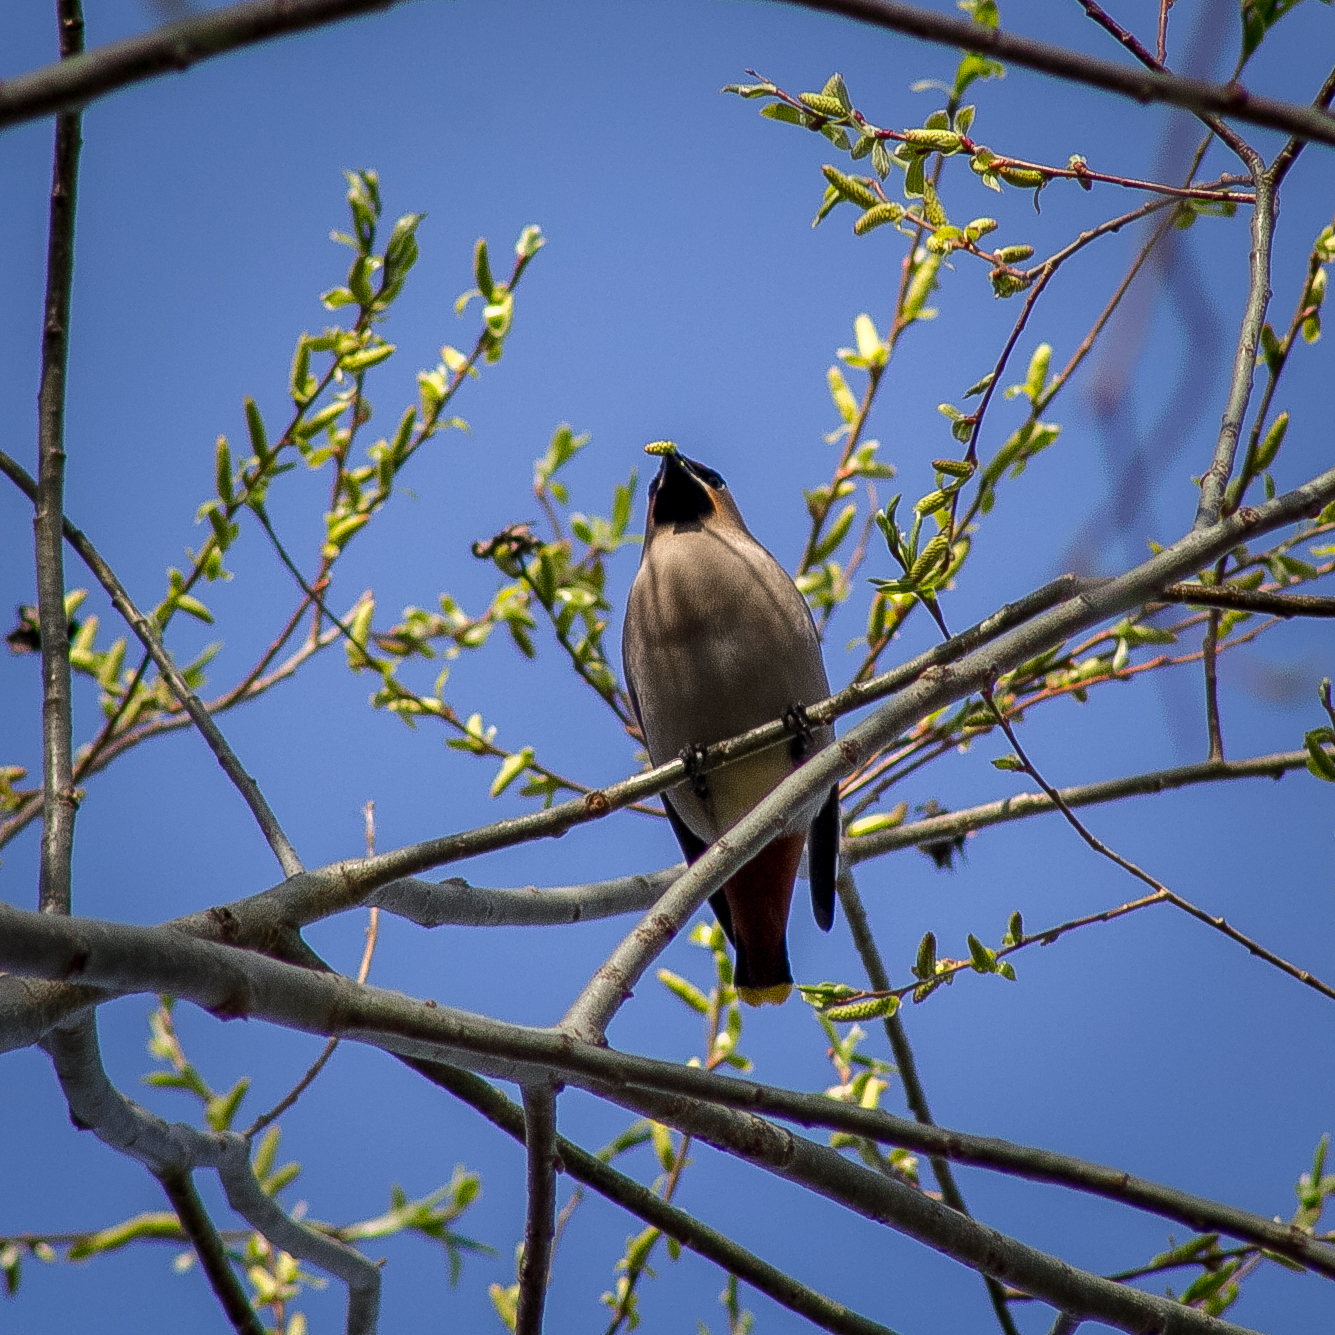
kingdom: Animalia
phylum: Chordata
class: Aves
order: Passeriformes
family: Bombycillidae
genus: Bombycilla
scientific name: Bombycilla garrulus
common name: Bohemian waxwing
